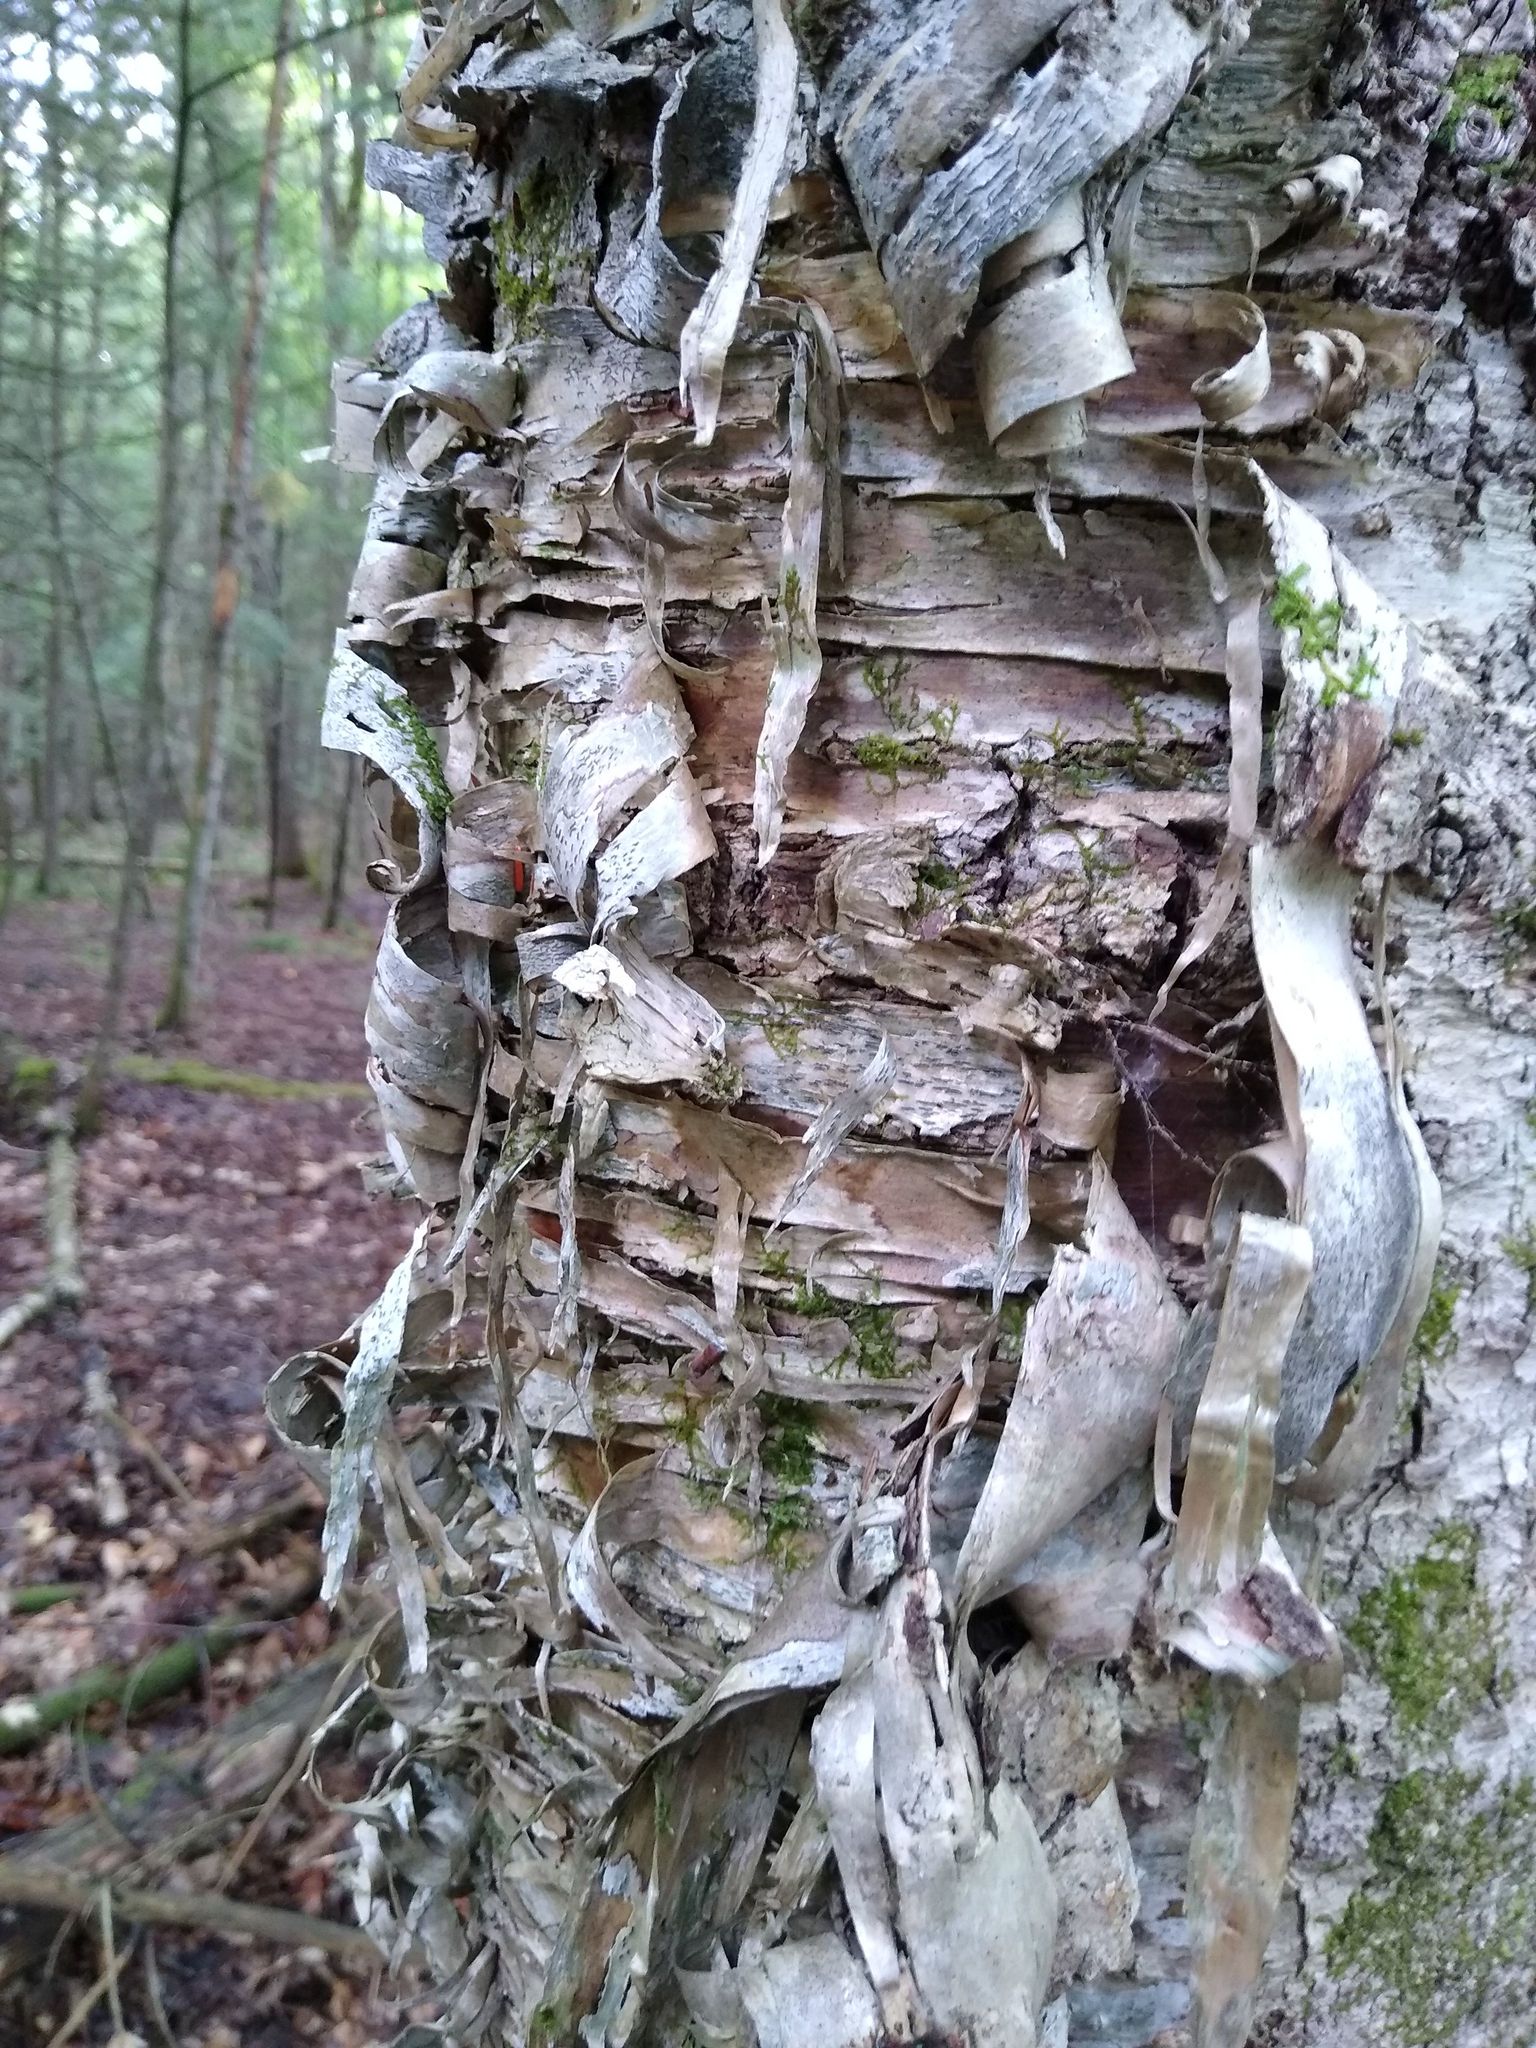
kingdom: Fungi
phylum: Basidiomycota
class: Agaricomycetes
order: Hymenochaetales
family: Hymenochaetaceae
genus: Inonotus
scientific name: Inonotus obliquus
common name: Chaga
